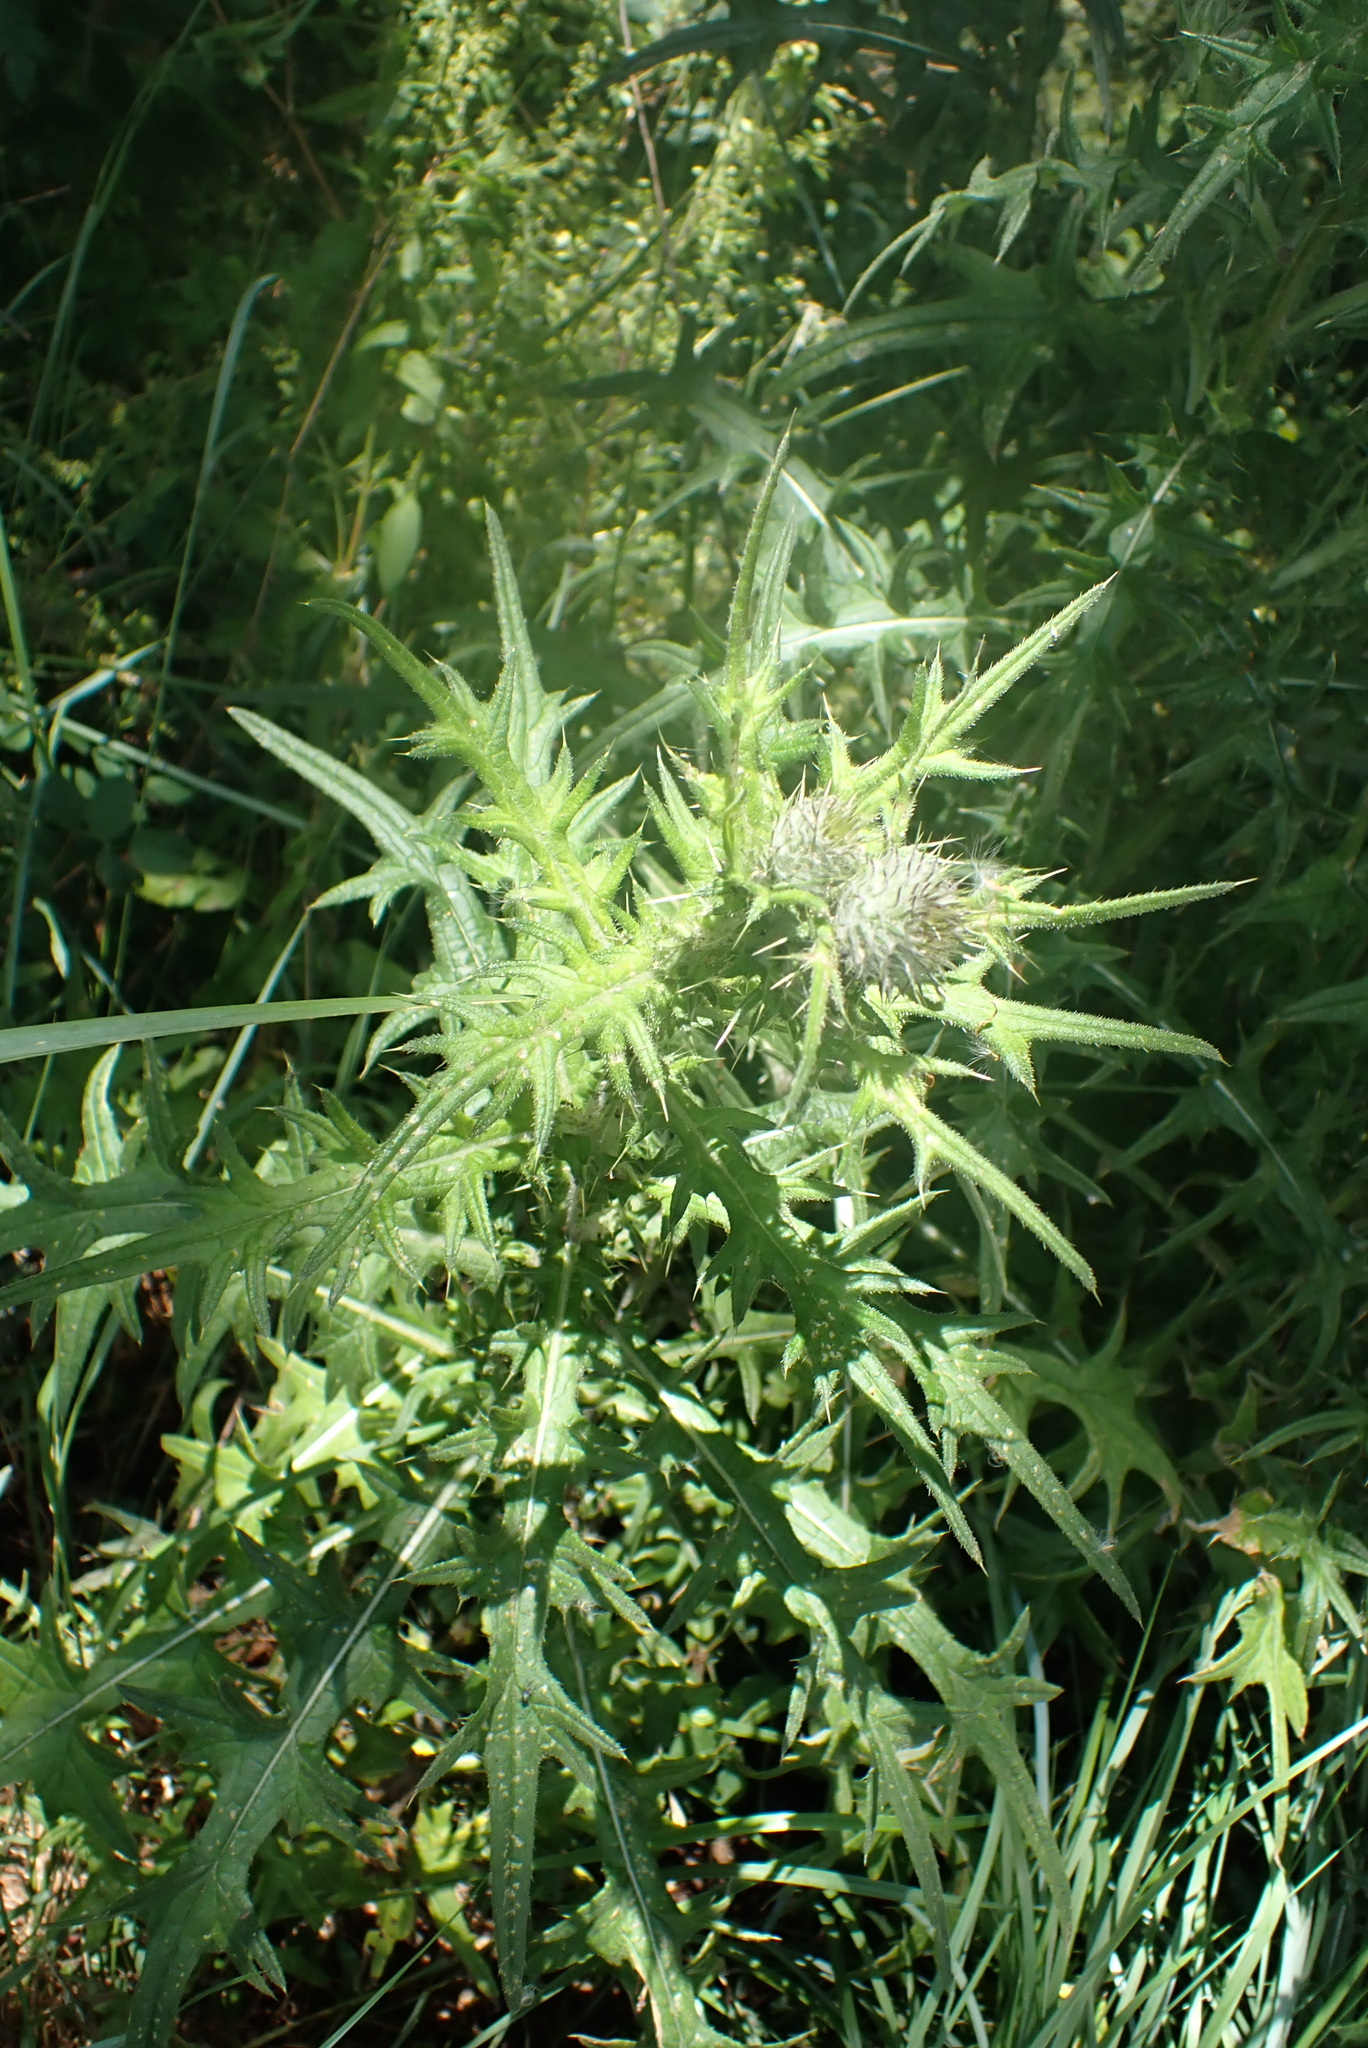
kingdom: Plantae
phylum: Tracheophyta
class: Magnoliopsida
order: Asterales
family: Asteraceae
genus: Cirsium
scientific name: Cirsium vulgare
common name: Bull thistle
